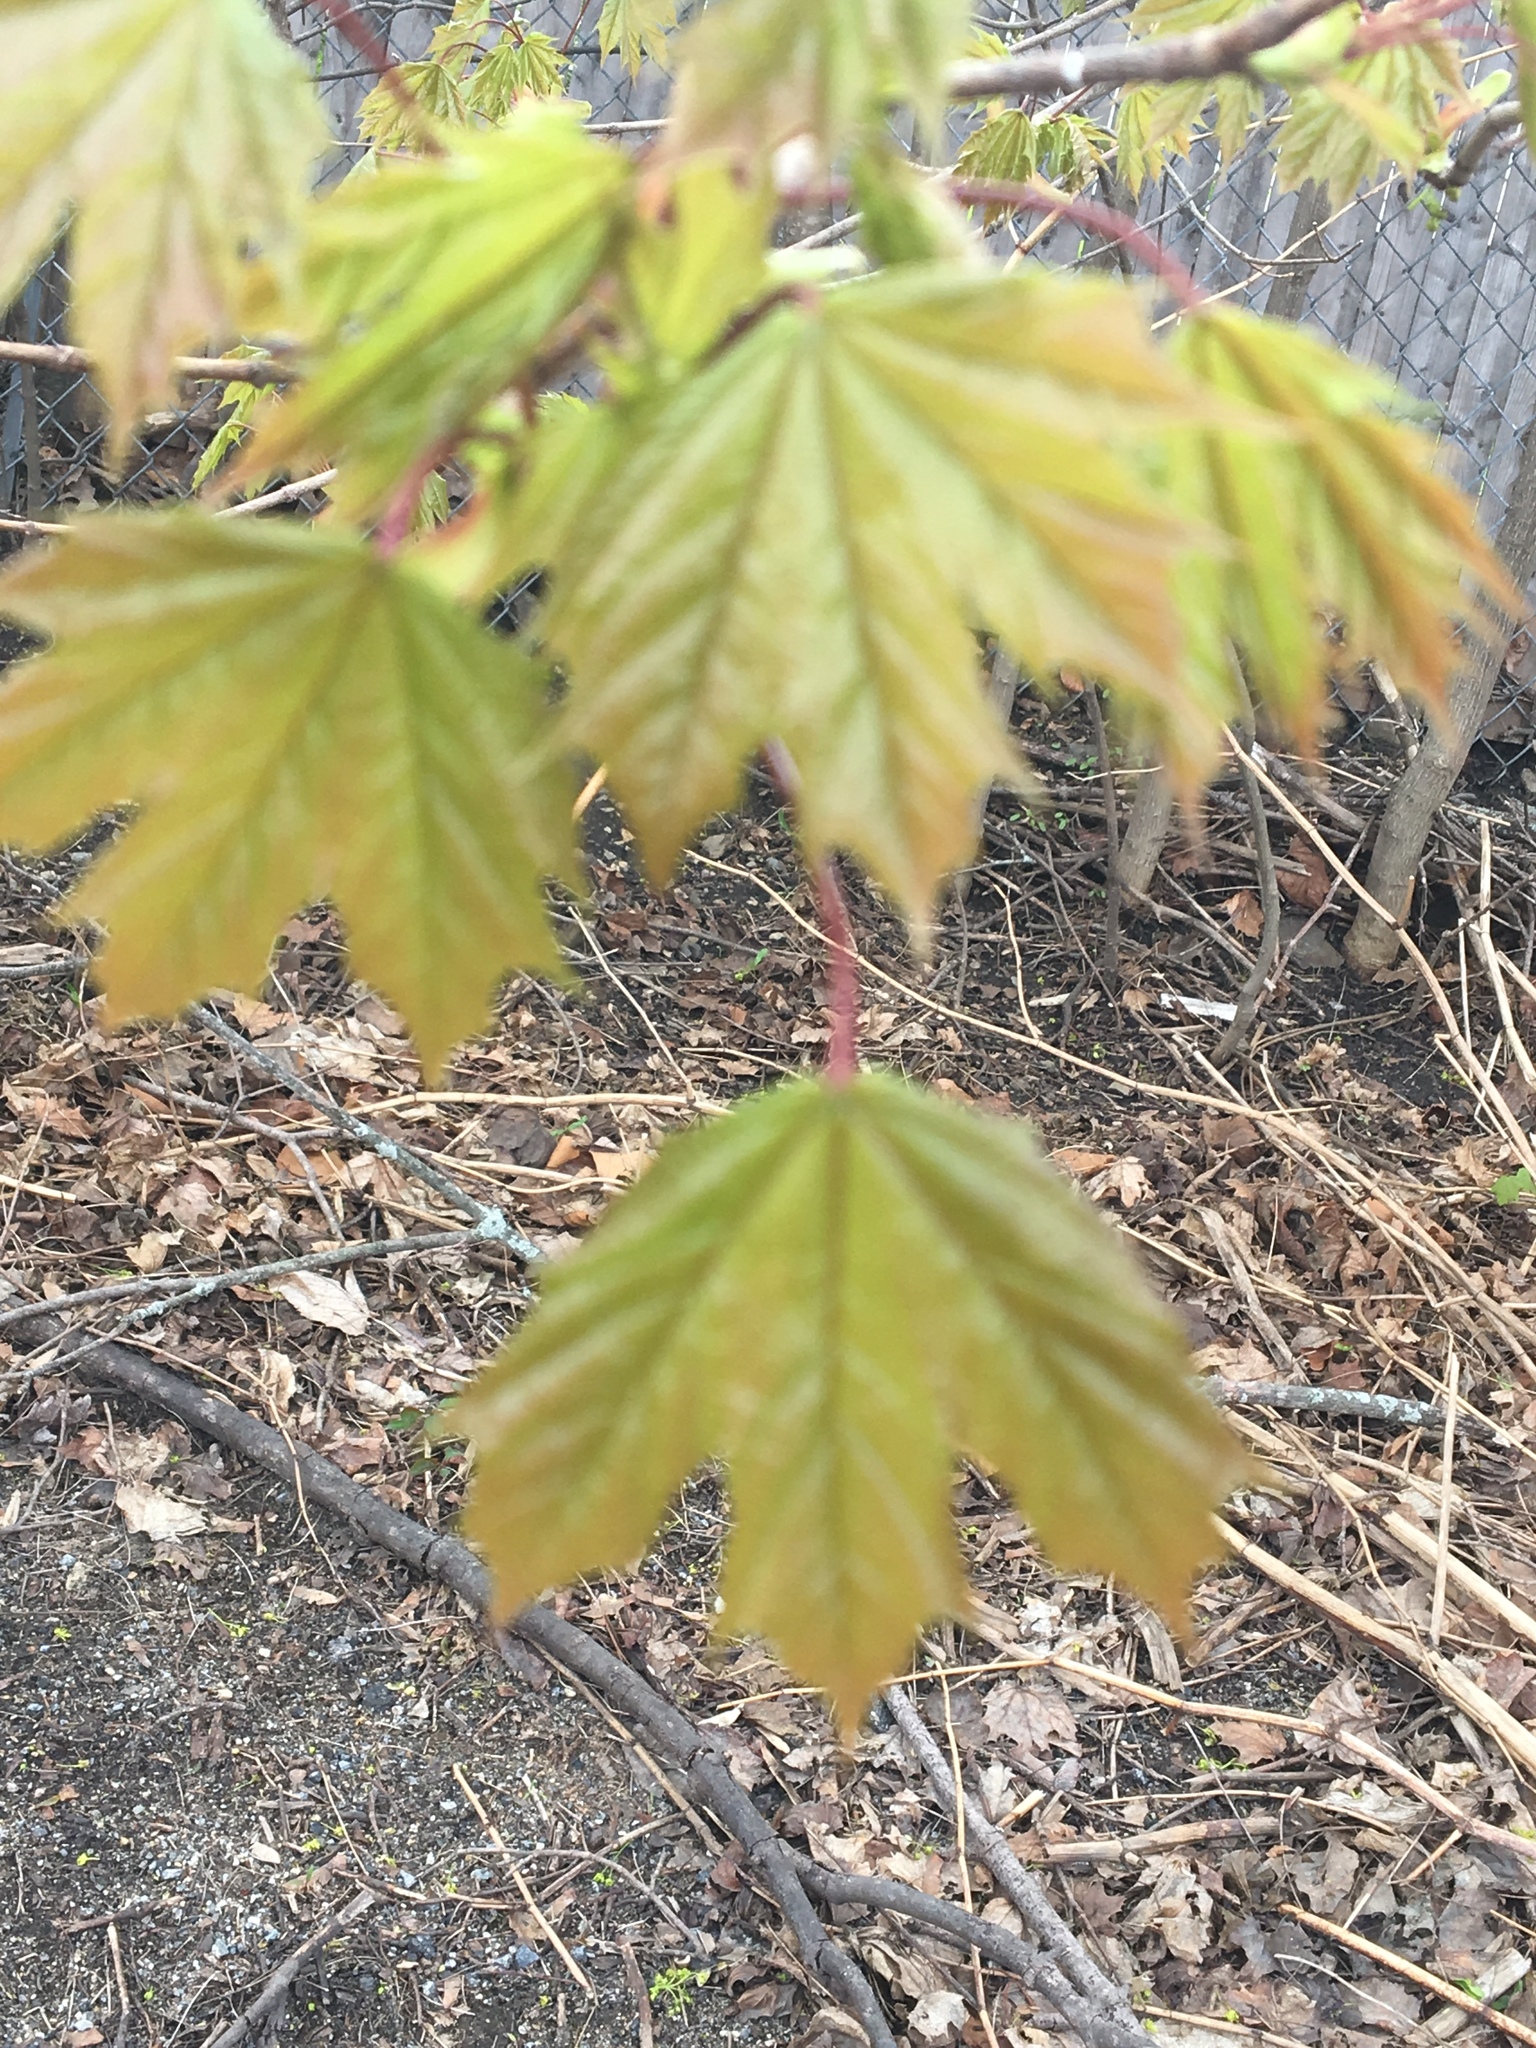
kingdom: Plantae
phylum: Tracheophyta
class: Magnoliopsida
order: Sapindales
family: Sapindaceae
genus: Acer
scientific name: Acer platanoides
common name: Norway maple
